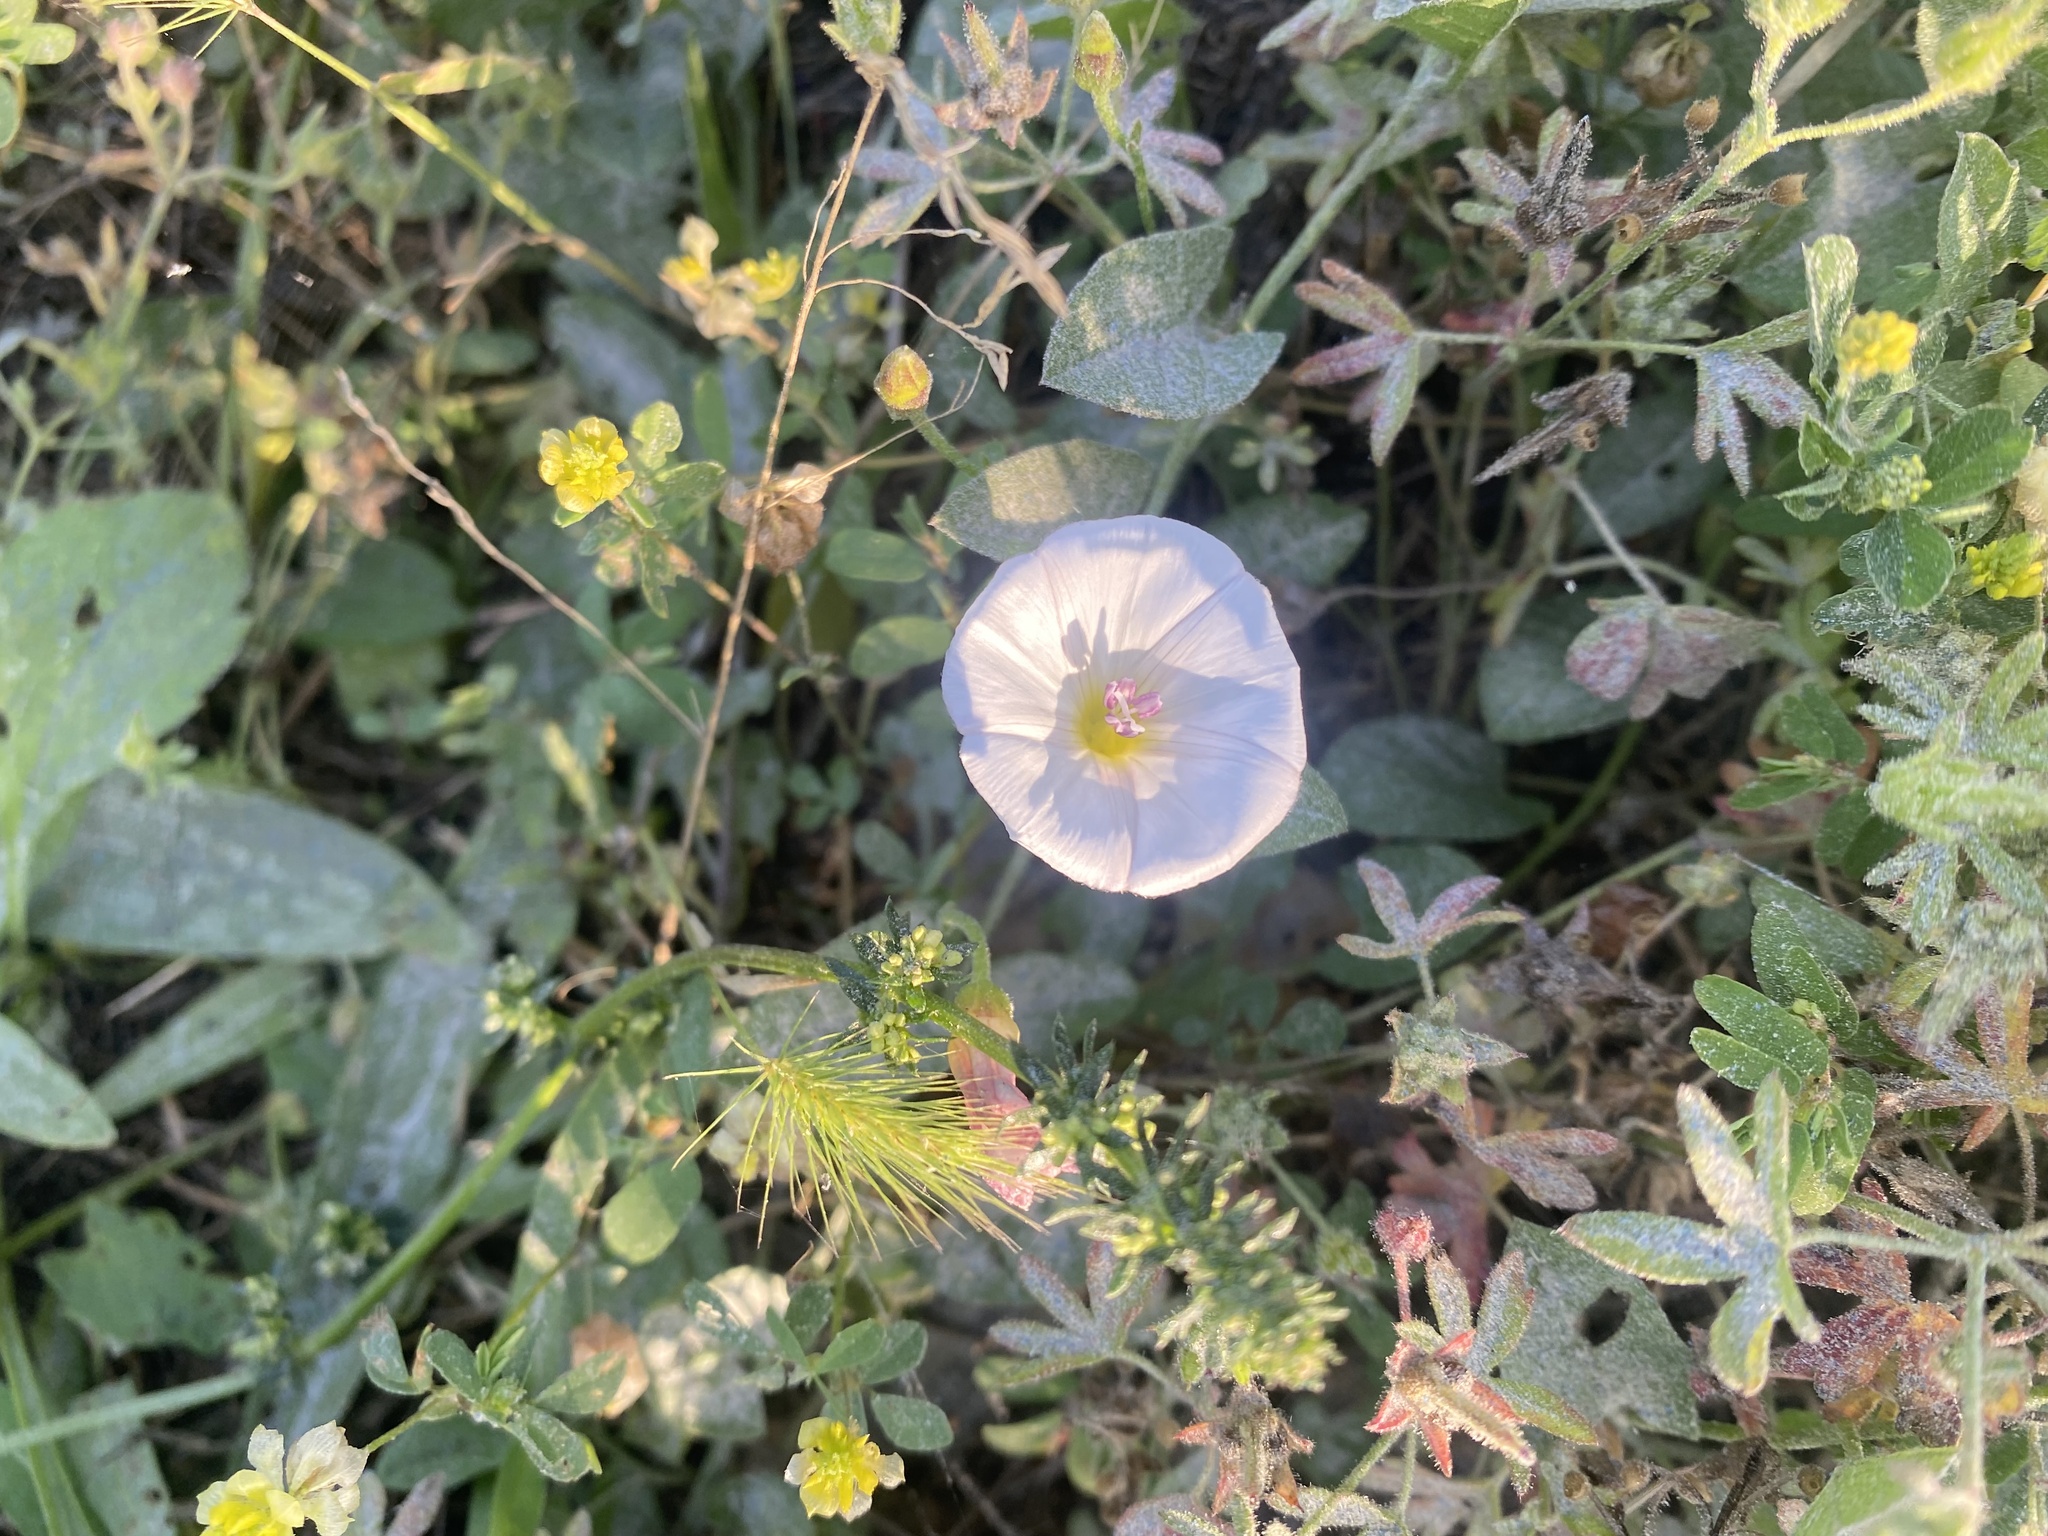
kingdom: Plantae
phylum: Tracheophyta
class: Magnoliopsida
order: Solanales
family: Convolvulaceae
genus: Convolvulus
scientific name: Convolvulus arvensis
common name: Field bindweed
